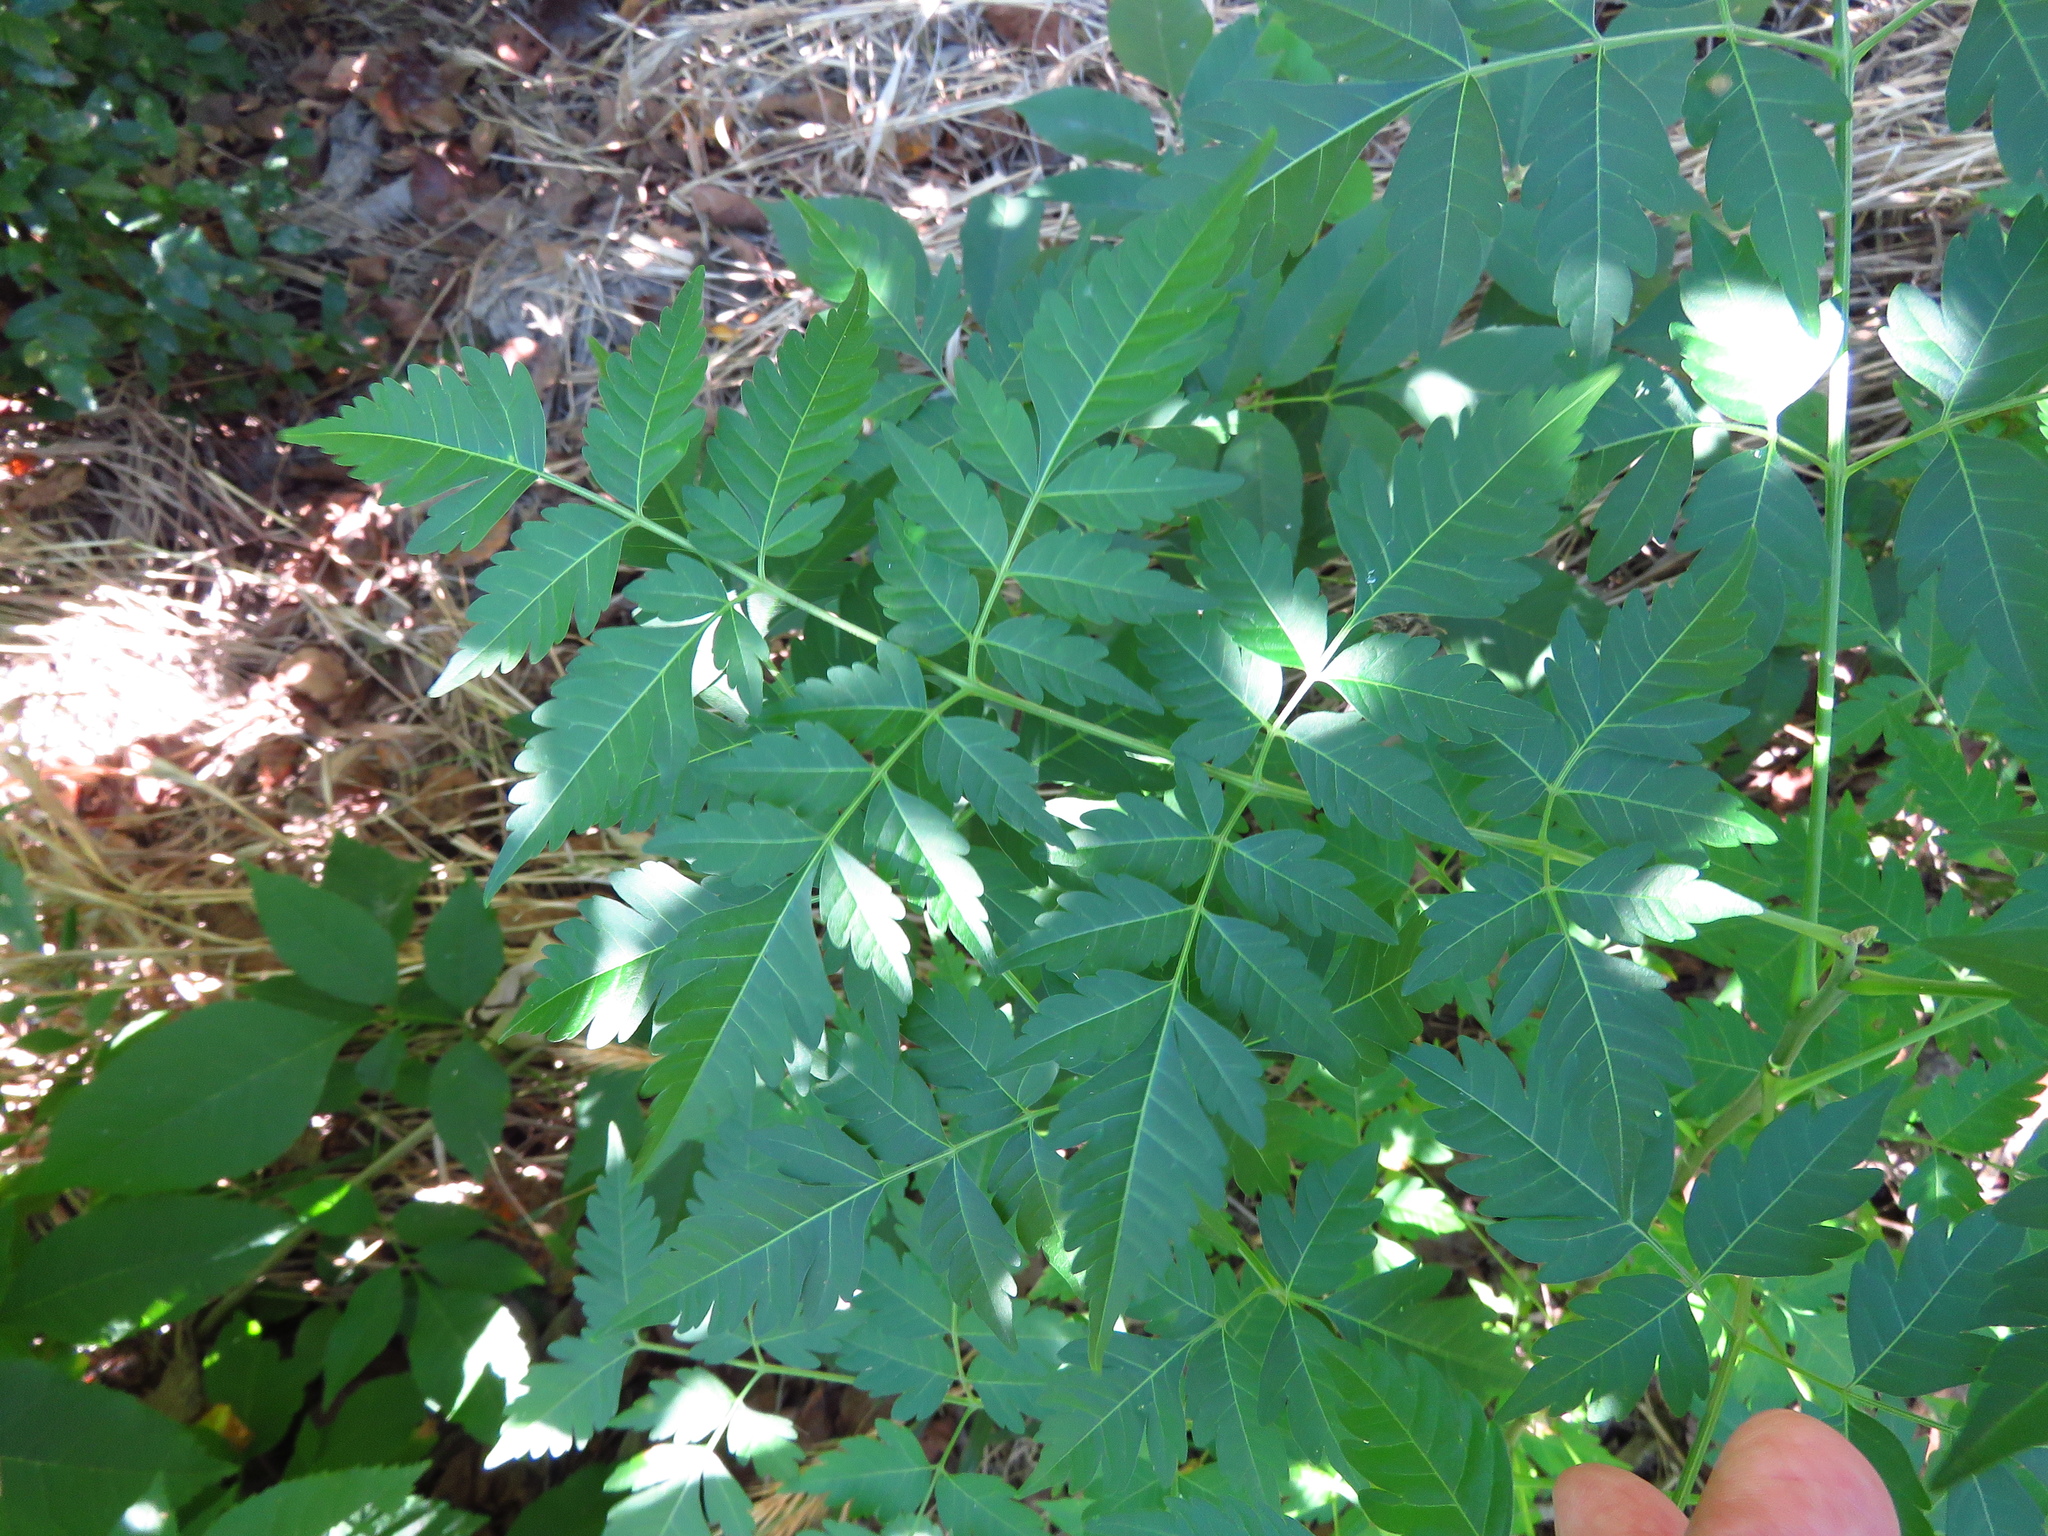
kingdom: Plantae
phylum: Tracheophyta
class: Magnoliopsida
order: Sapindales
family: Meliaceae
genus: Melia
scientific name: Melia azedarach
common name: Chinaberrytree
